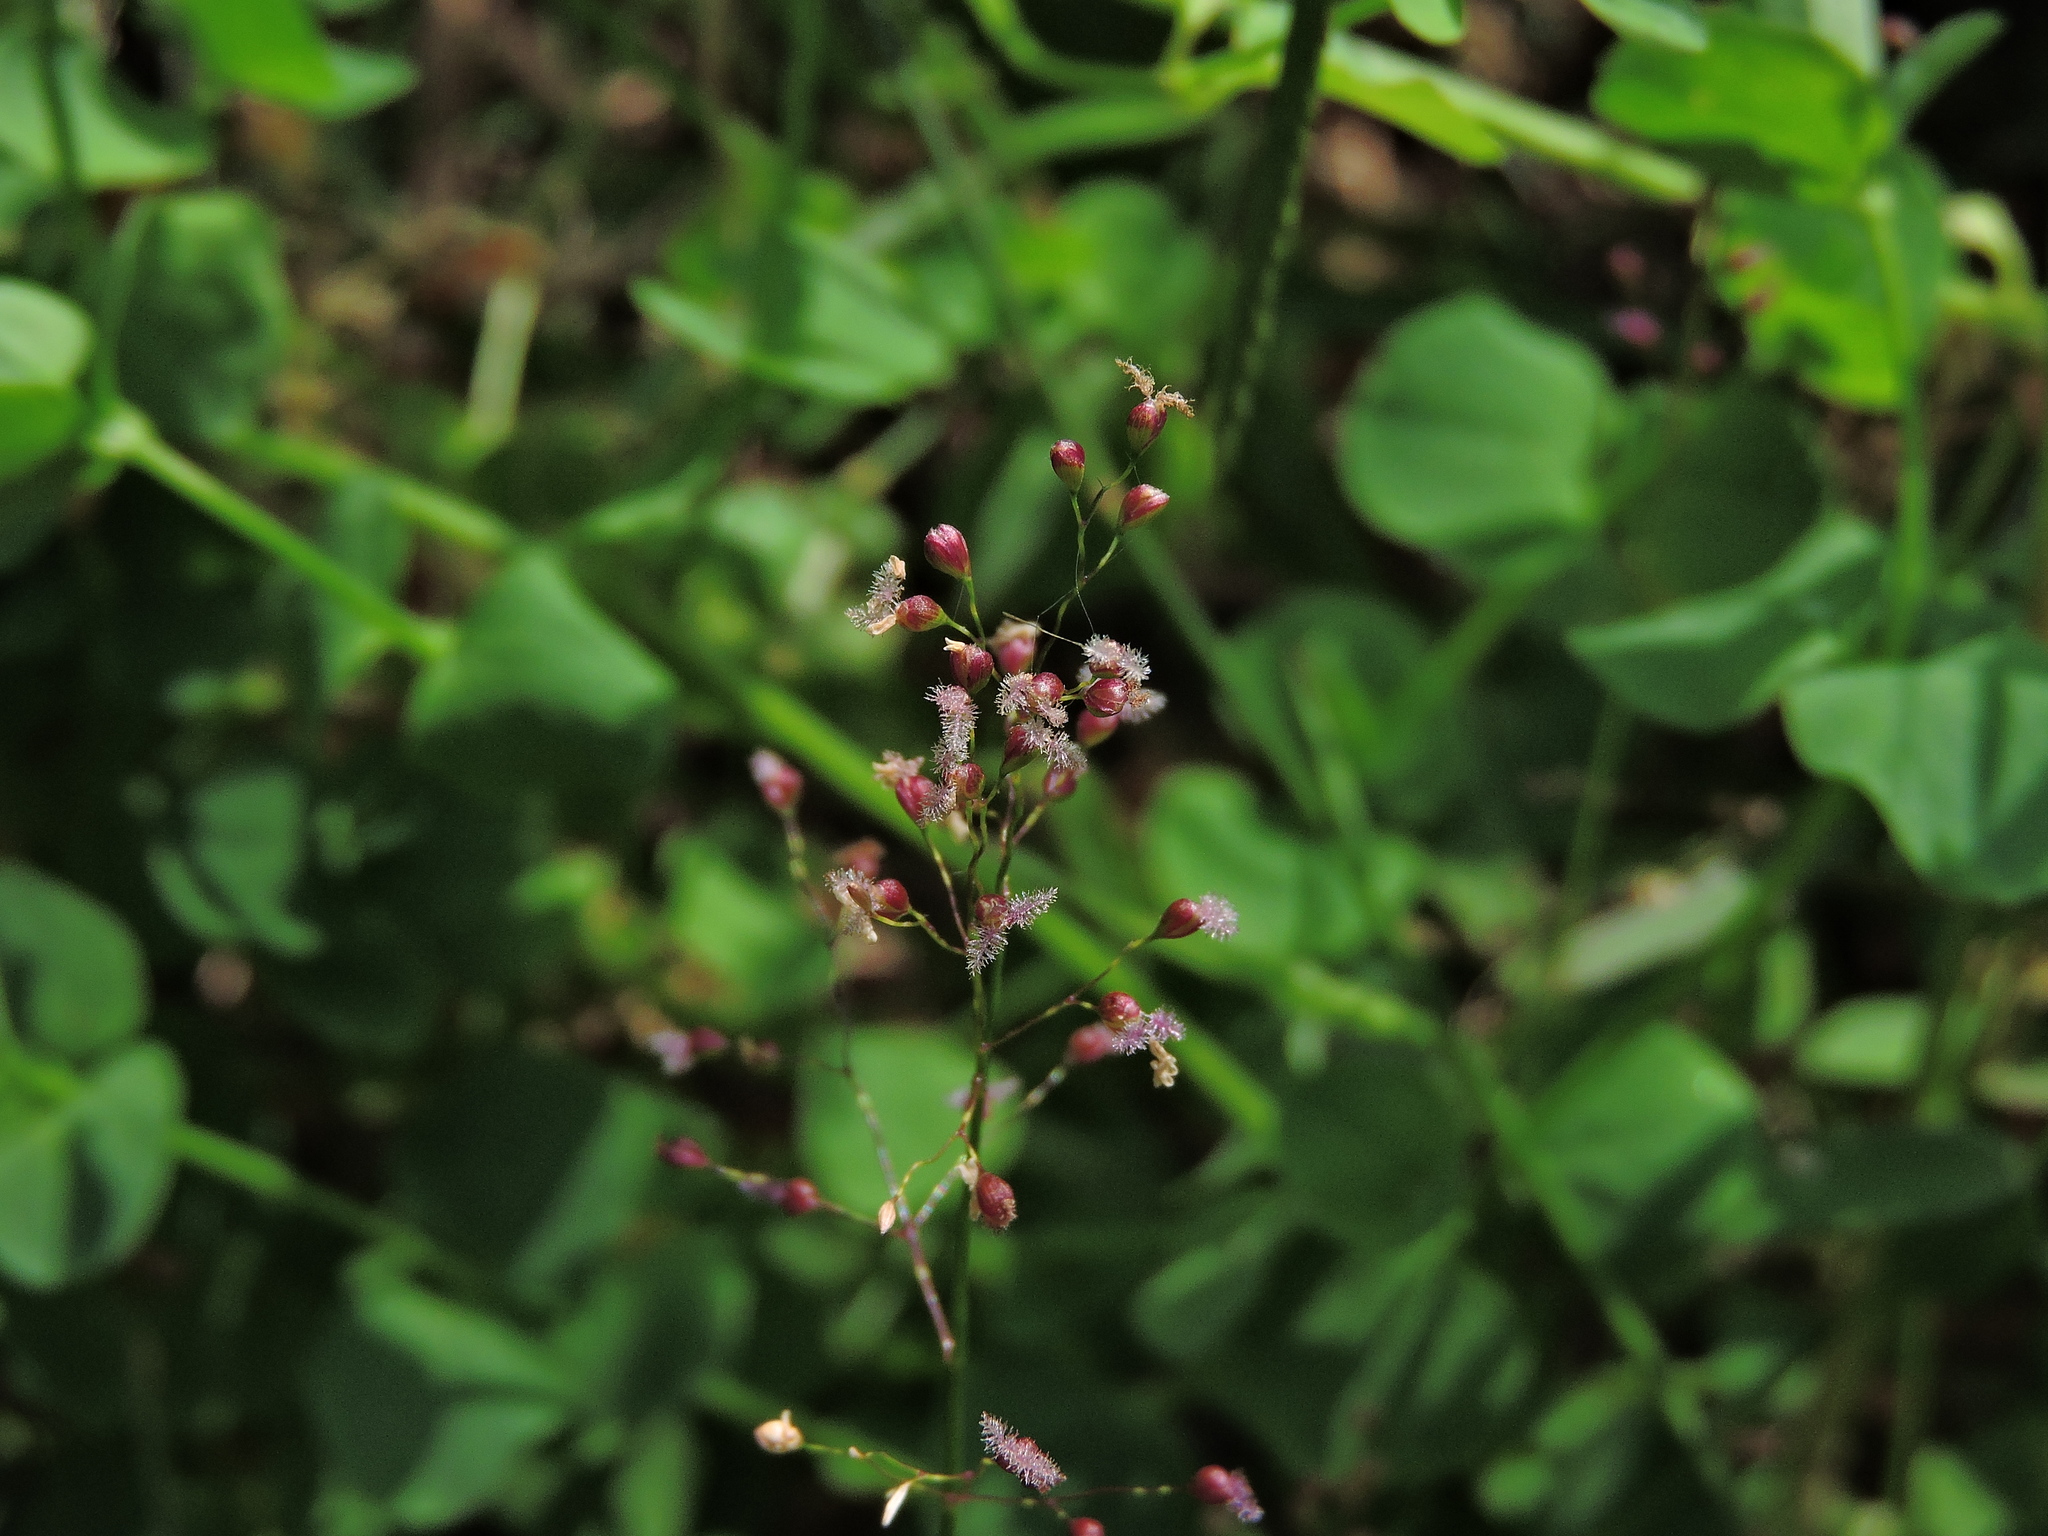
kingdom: Plantae
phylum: Tracheophyta
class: Liliopsida
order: Poales
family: Poaceae
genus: Isachne
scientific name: Isachne globosa
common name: Swamp millet
